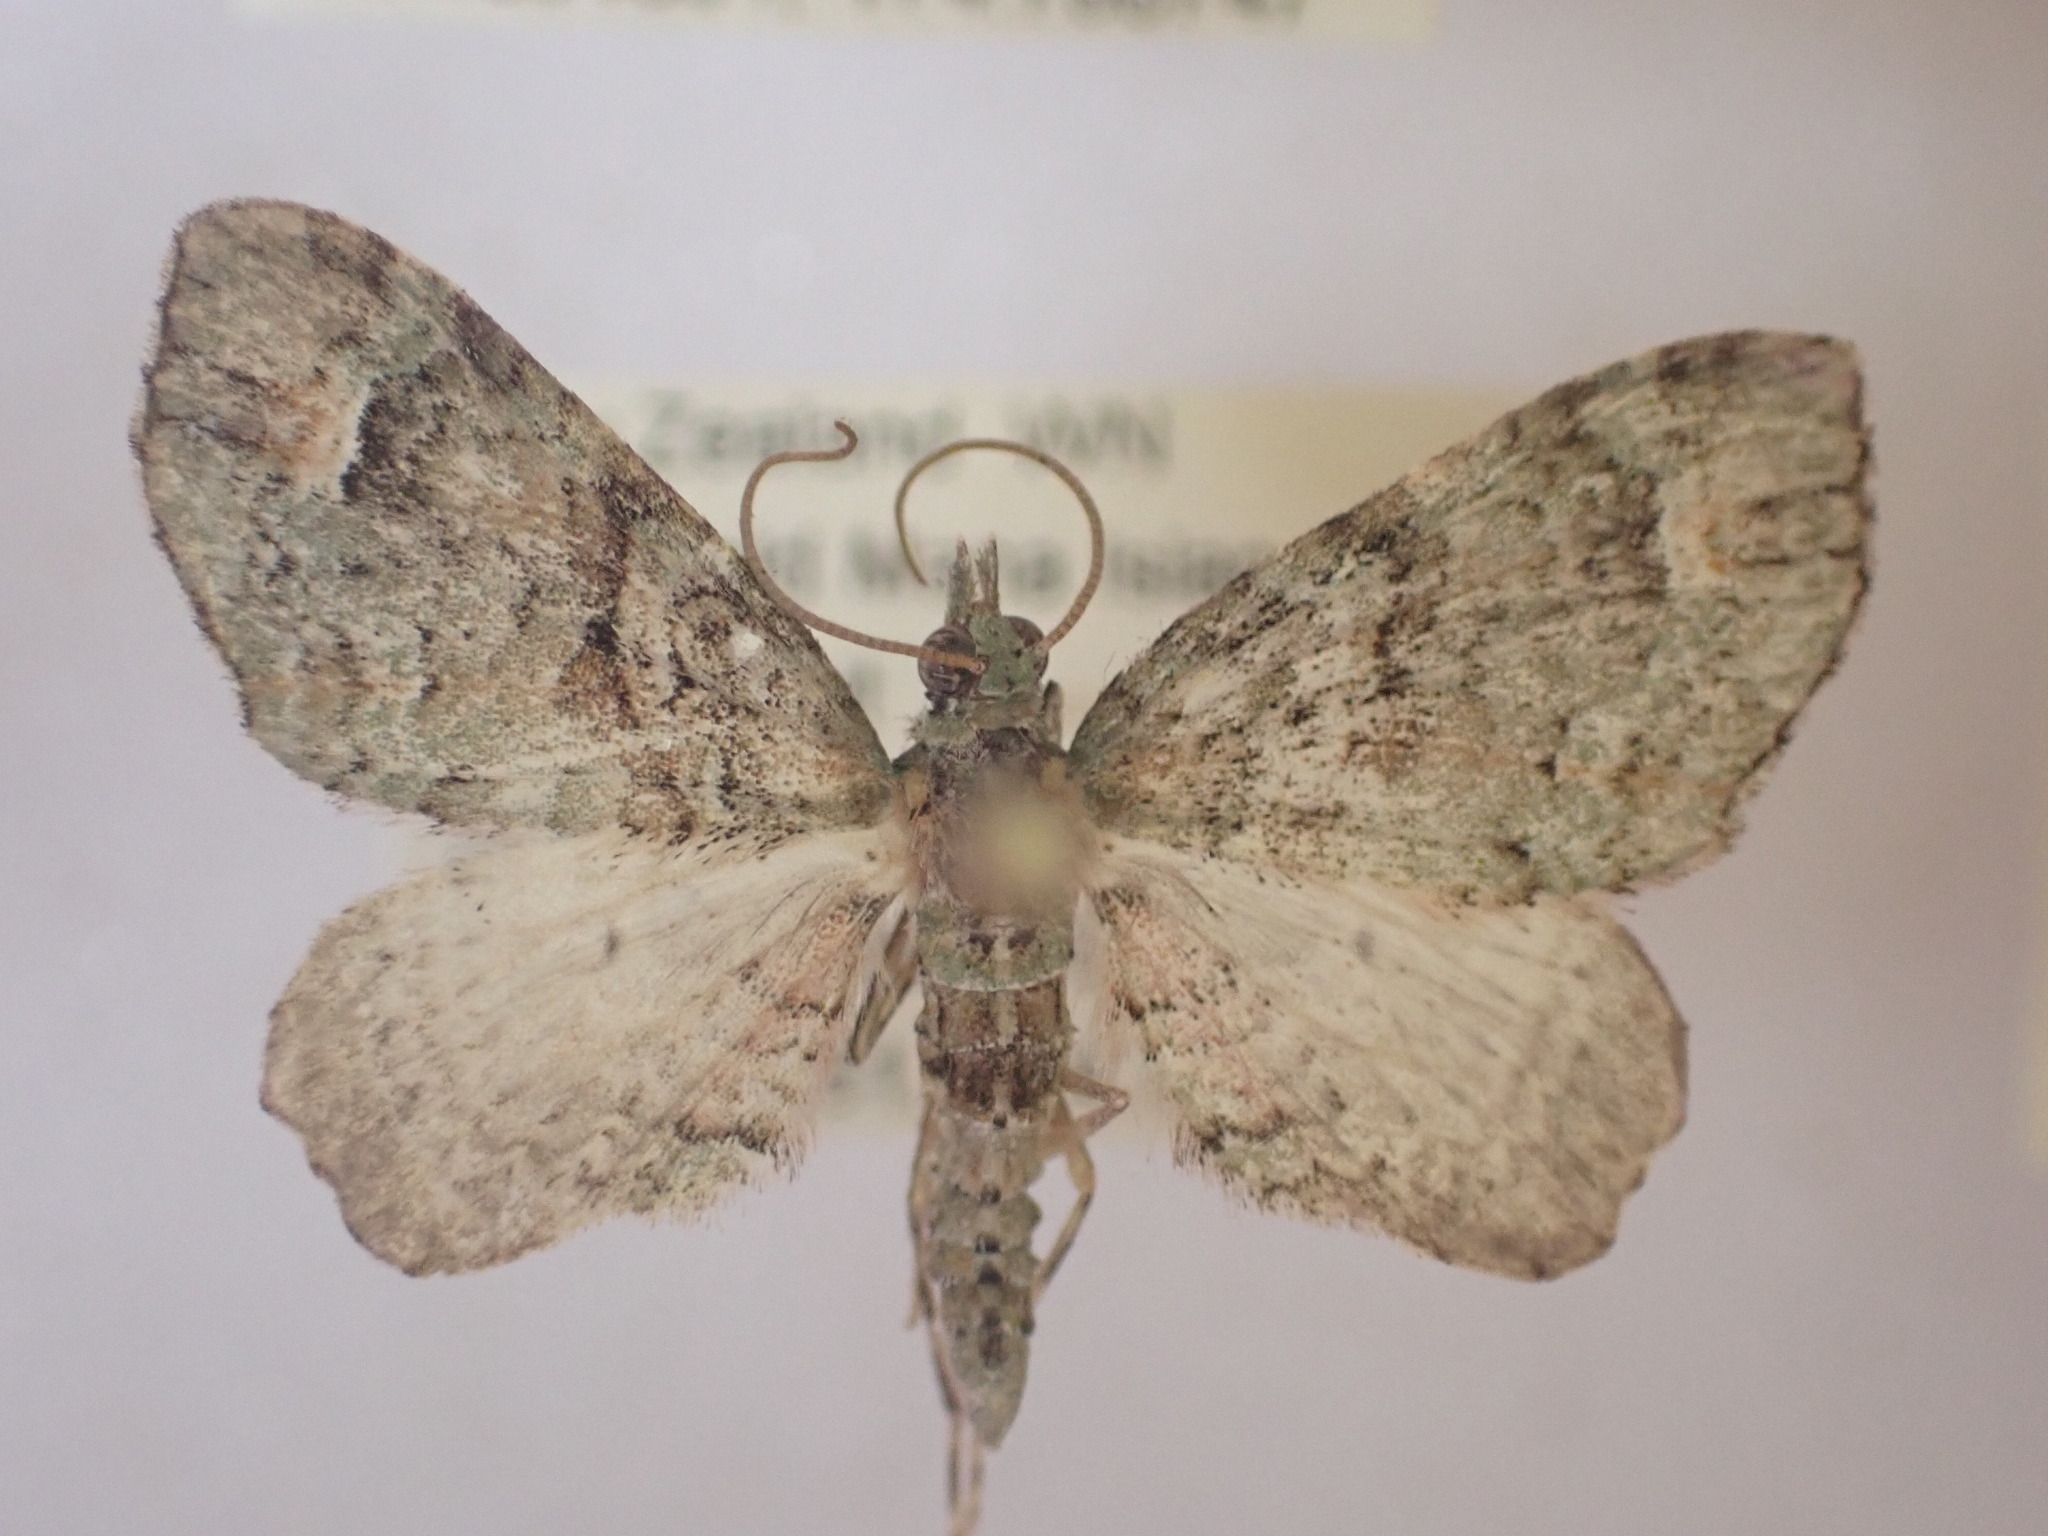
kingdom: Animalia
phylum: Arthropoda
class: Insecta
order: Lepidoptera
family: Geometridae
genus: Idaea
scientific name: Idaea mutanda
